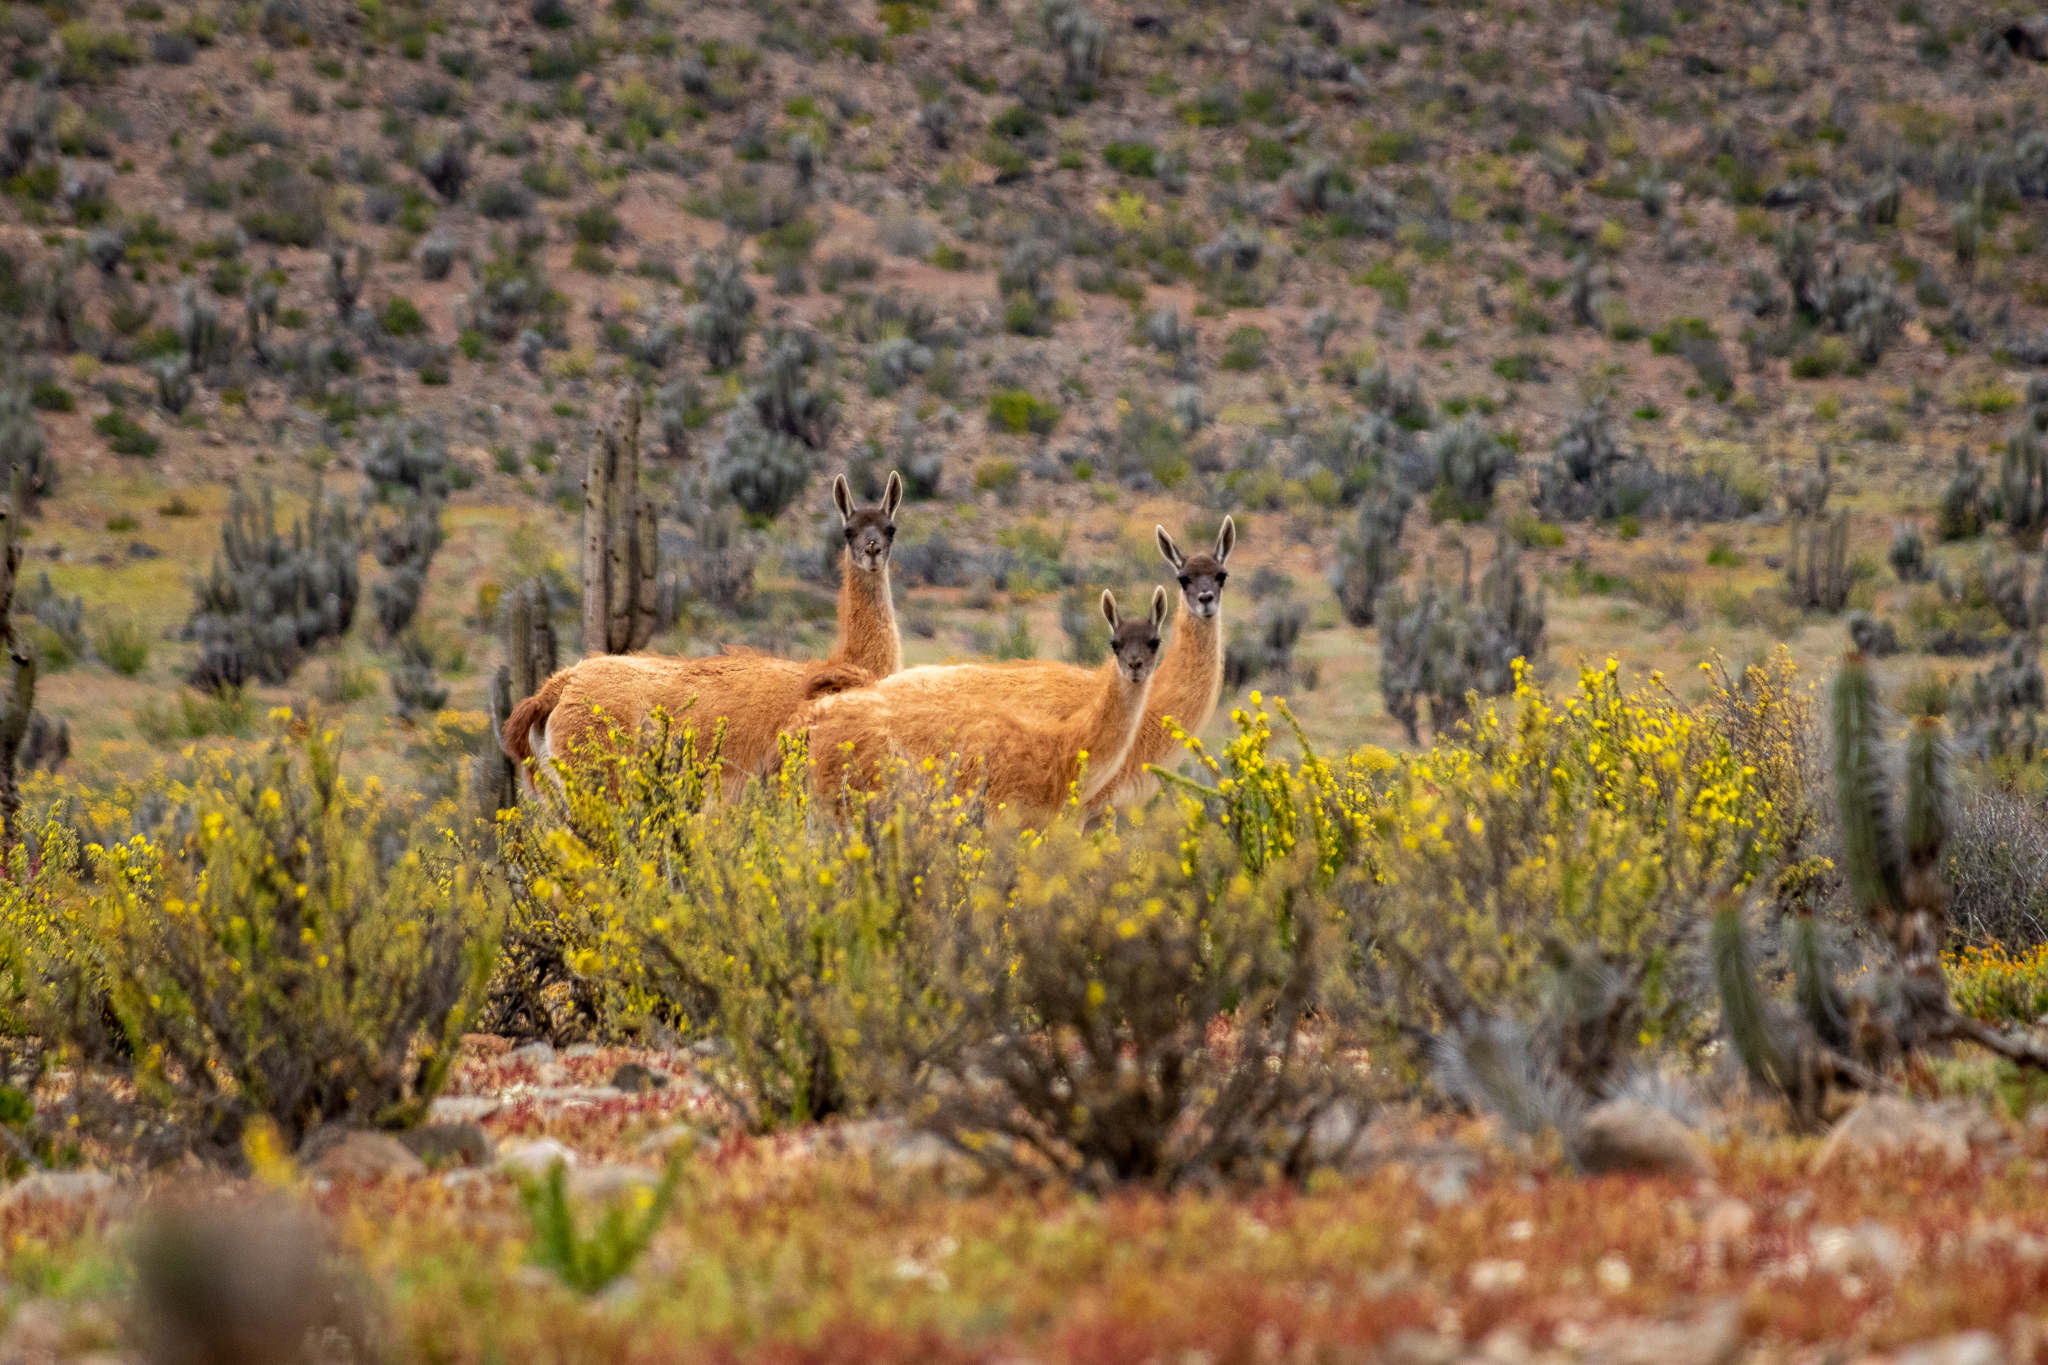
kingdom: Animalia
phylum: Chordata
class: Mammalia
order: Artiodactyla
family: Camelidae
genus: Lama
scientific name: Lama glama
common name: Llama
